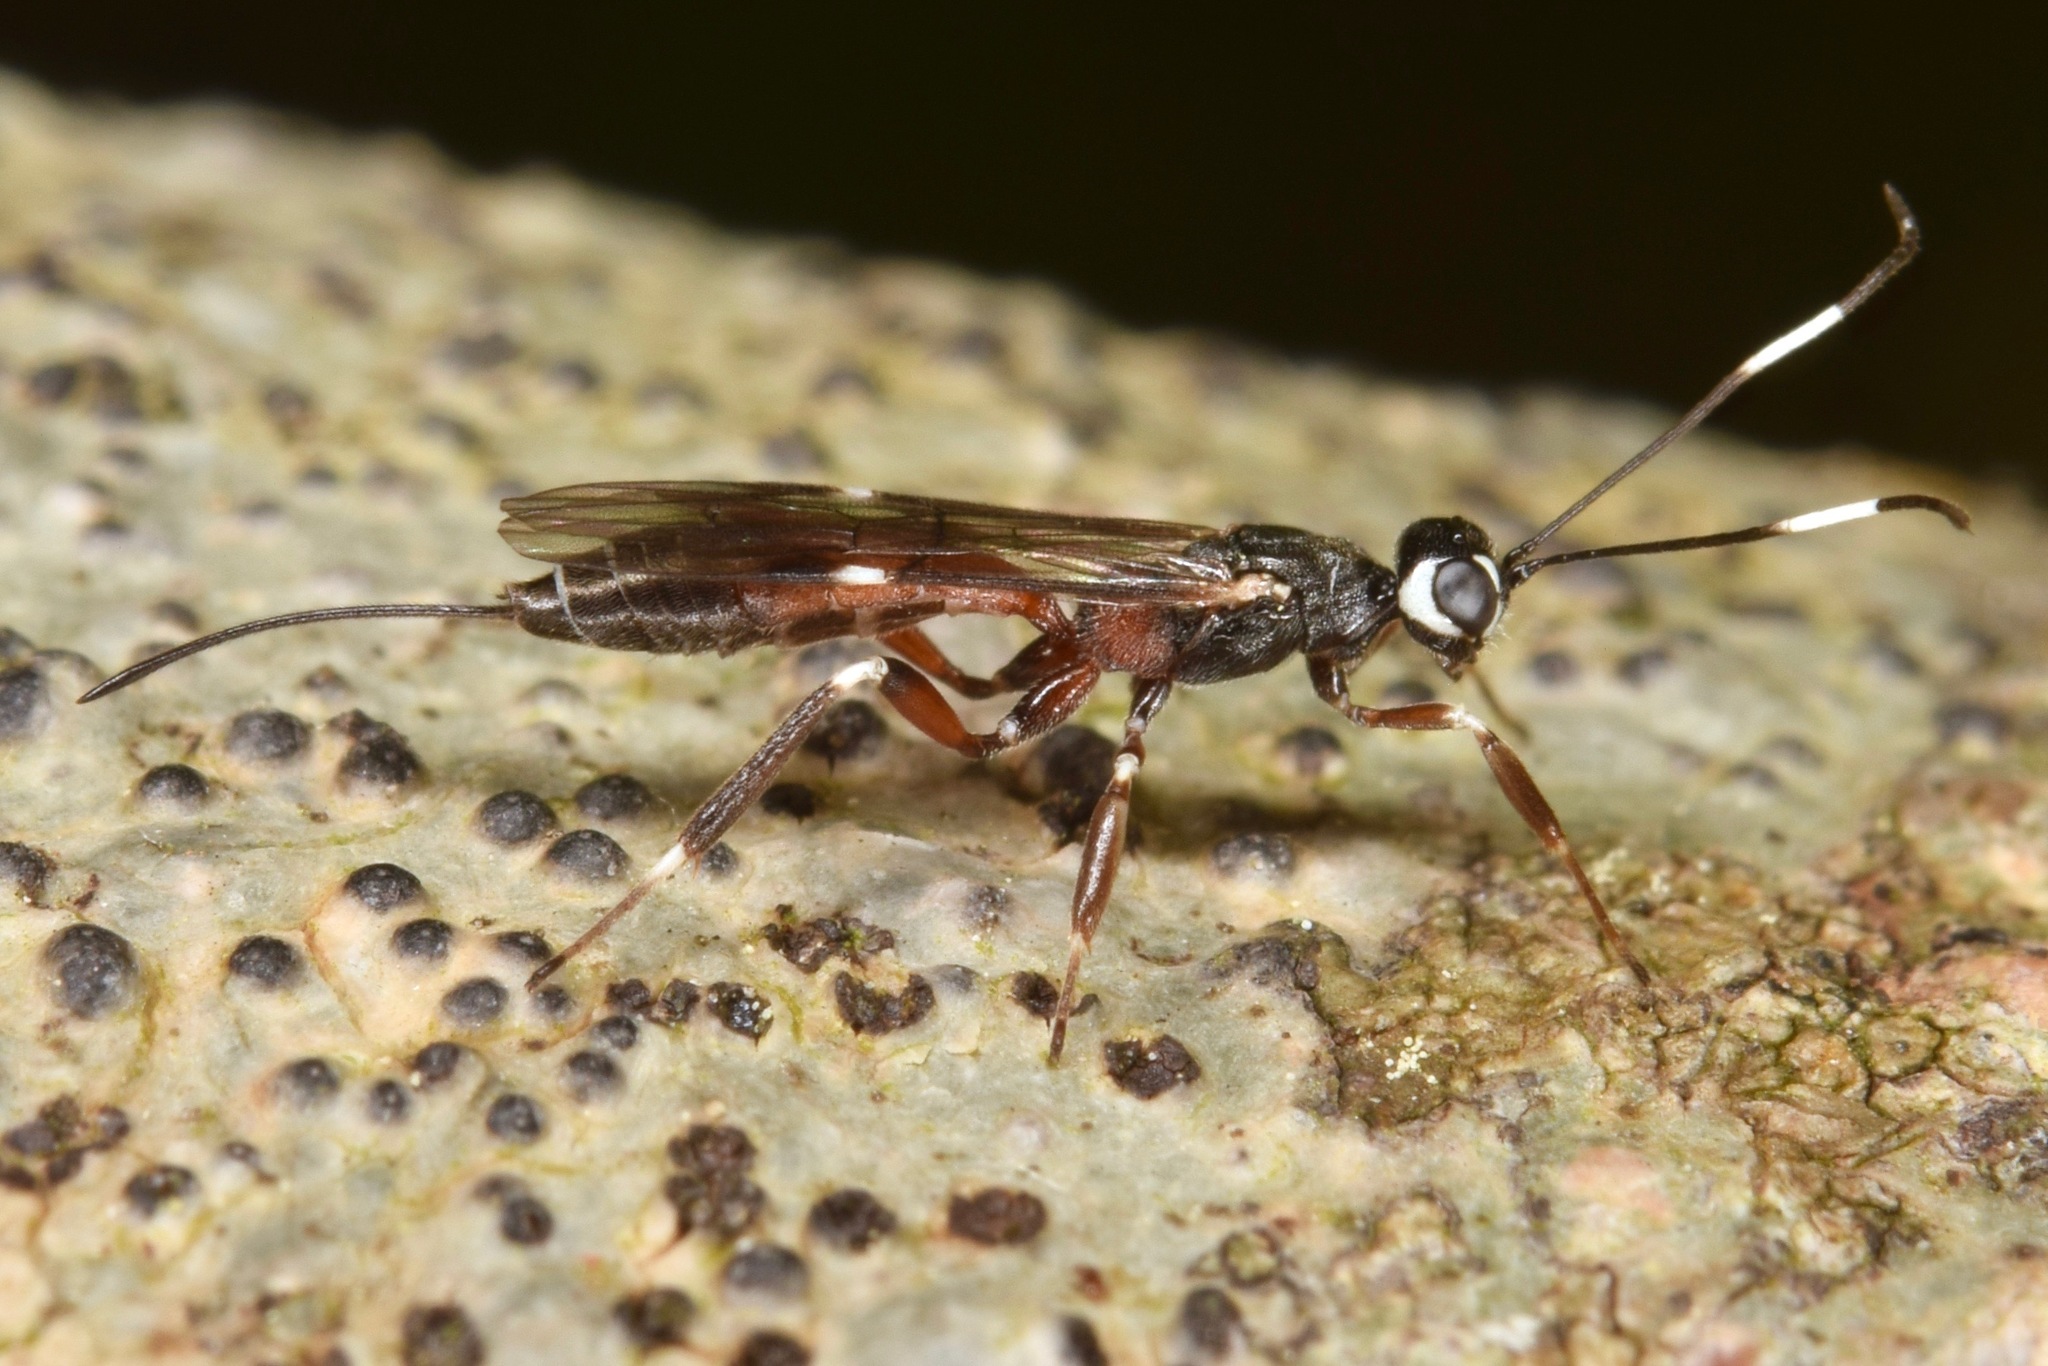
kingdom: Animalia
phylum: Arthropoda
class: Insecta
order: Hymenoptera
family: Ichneumonidae
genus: Xorides
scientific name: Xorides calidus
